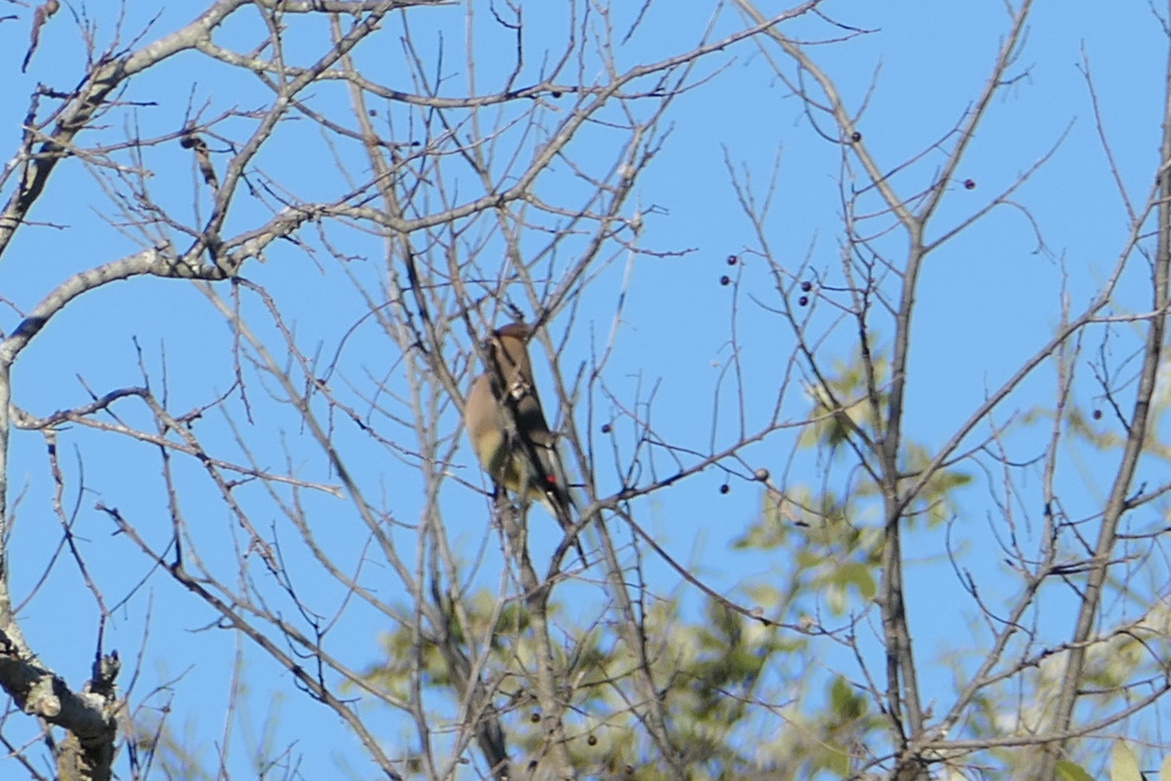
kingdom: Animalia
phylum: Chordata
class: Aves
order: Passeriformes
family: Bombycillidae
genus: Bombycilla
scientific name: Bombycilla cedrorum
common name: Cedar waxwing
